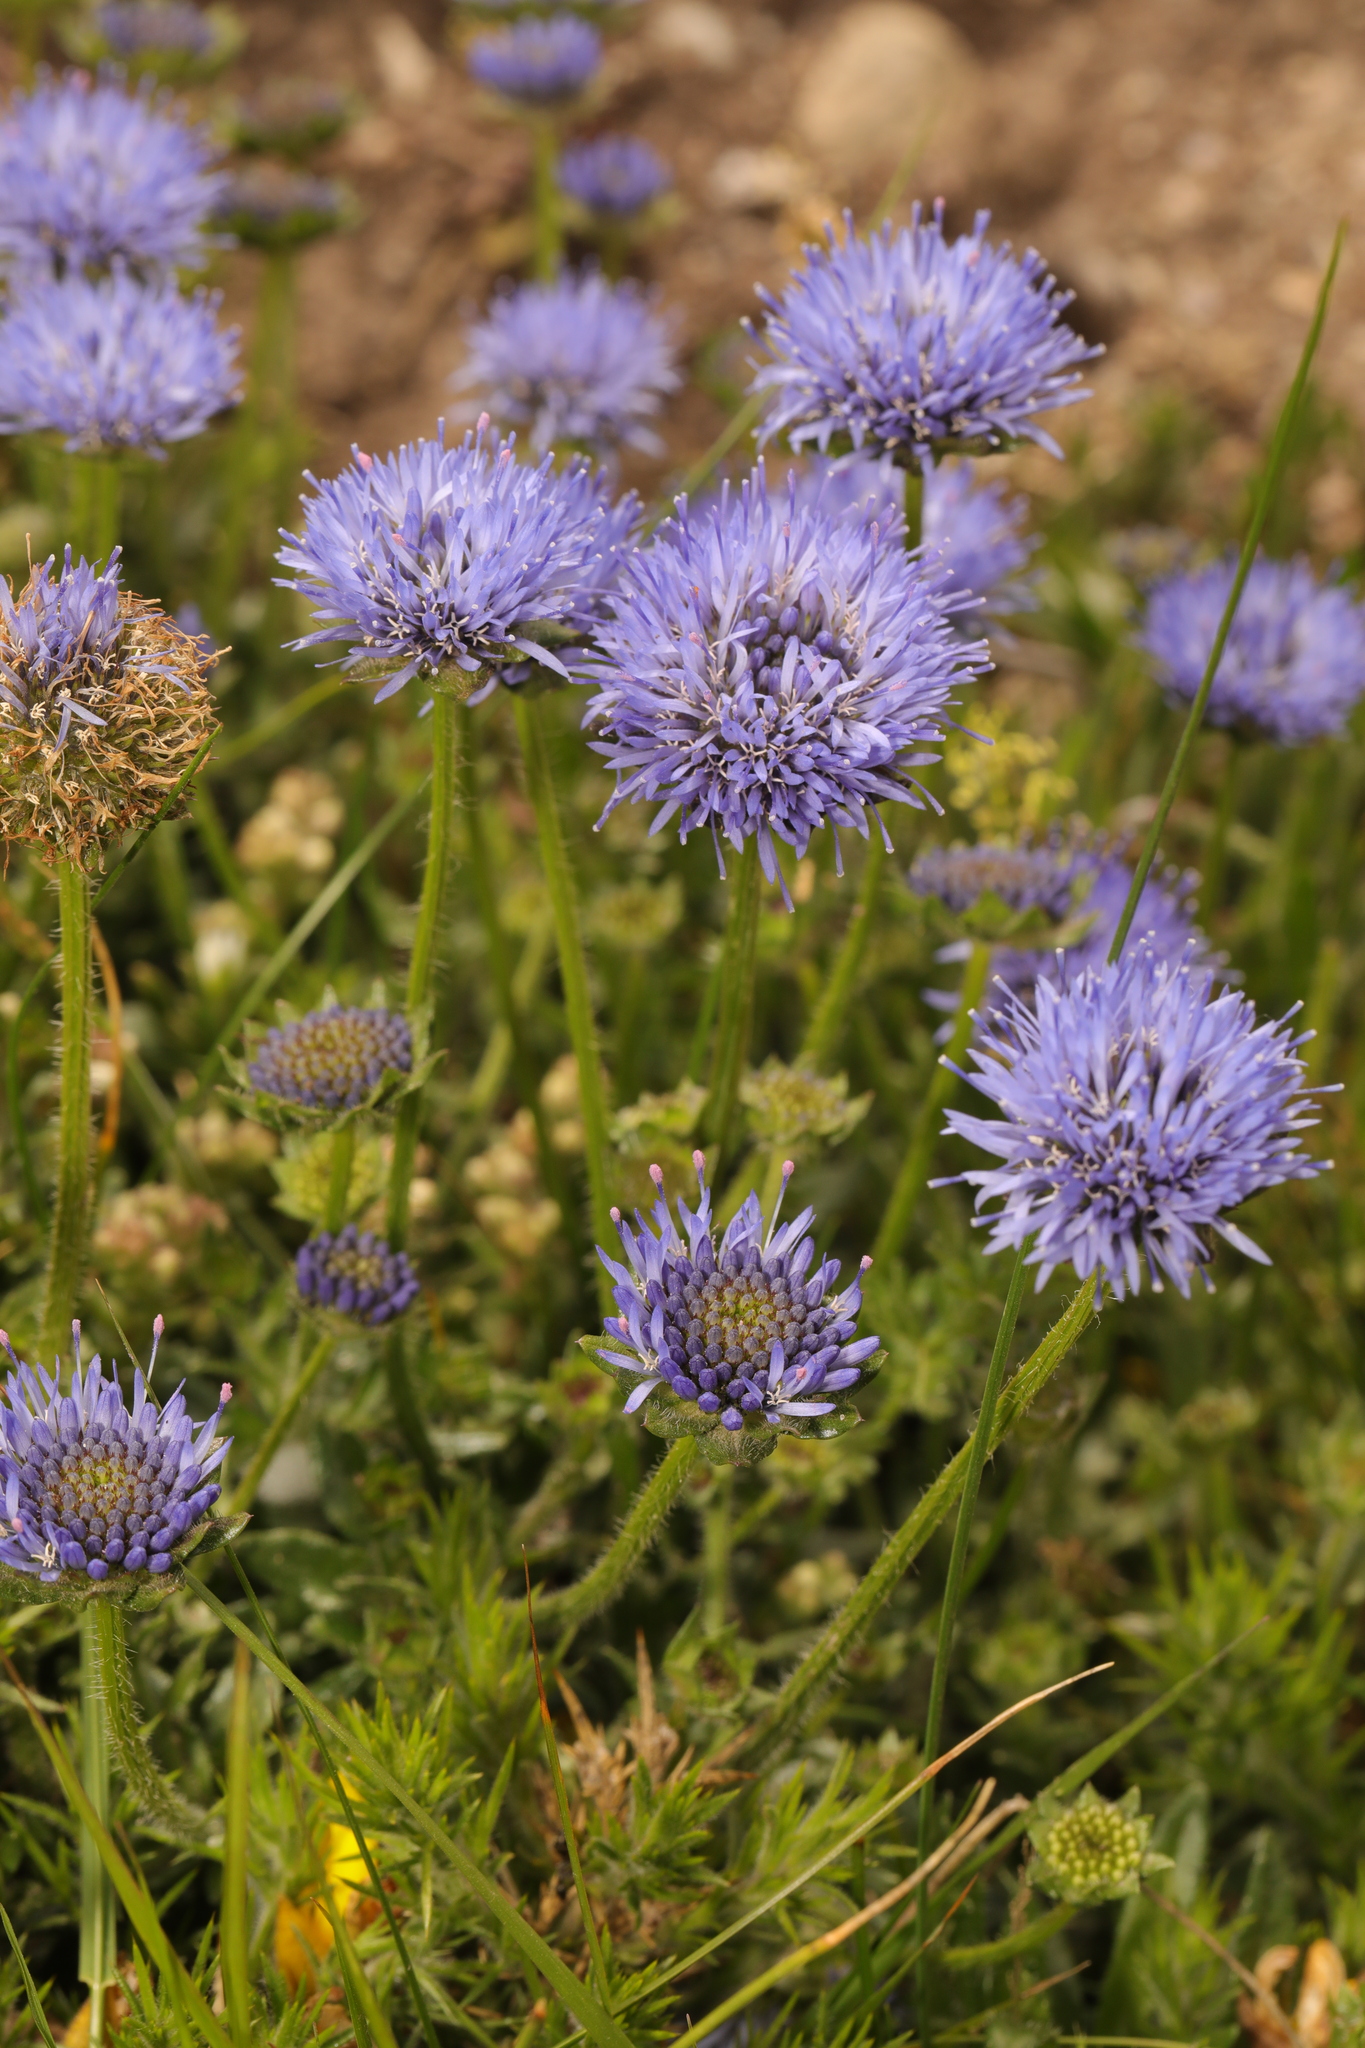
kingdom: Plantae
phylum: Tracheophyta
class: Magnoliopsida
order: Asterales
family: Campanulaceae
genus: Jasione
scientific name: Jasione montana
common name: Sheep's-bit
